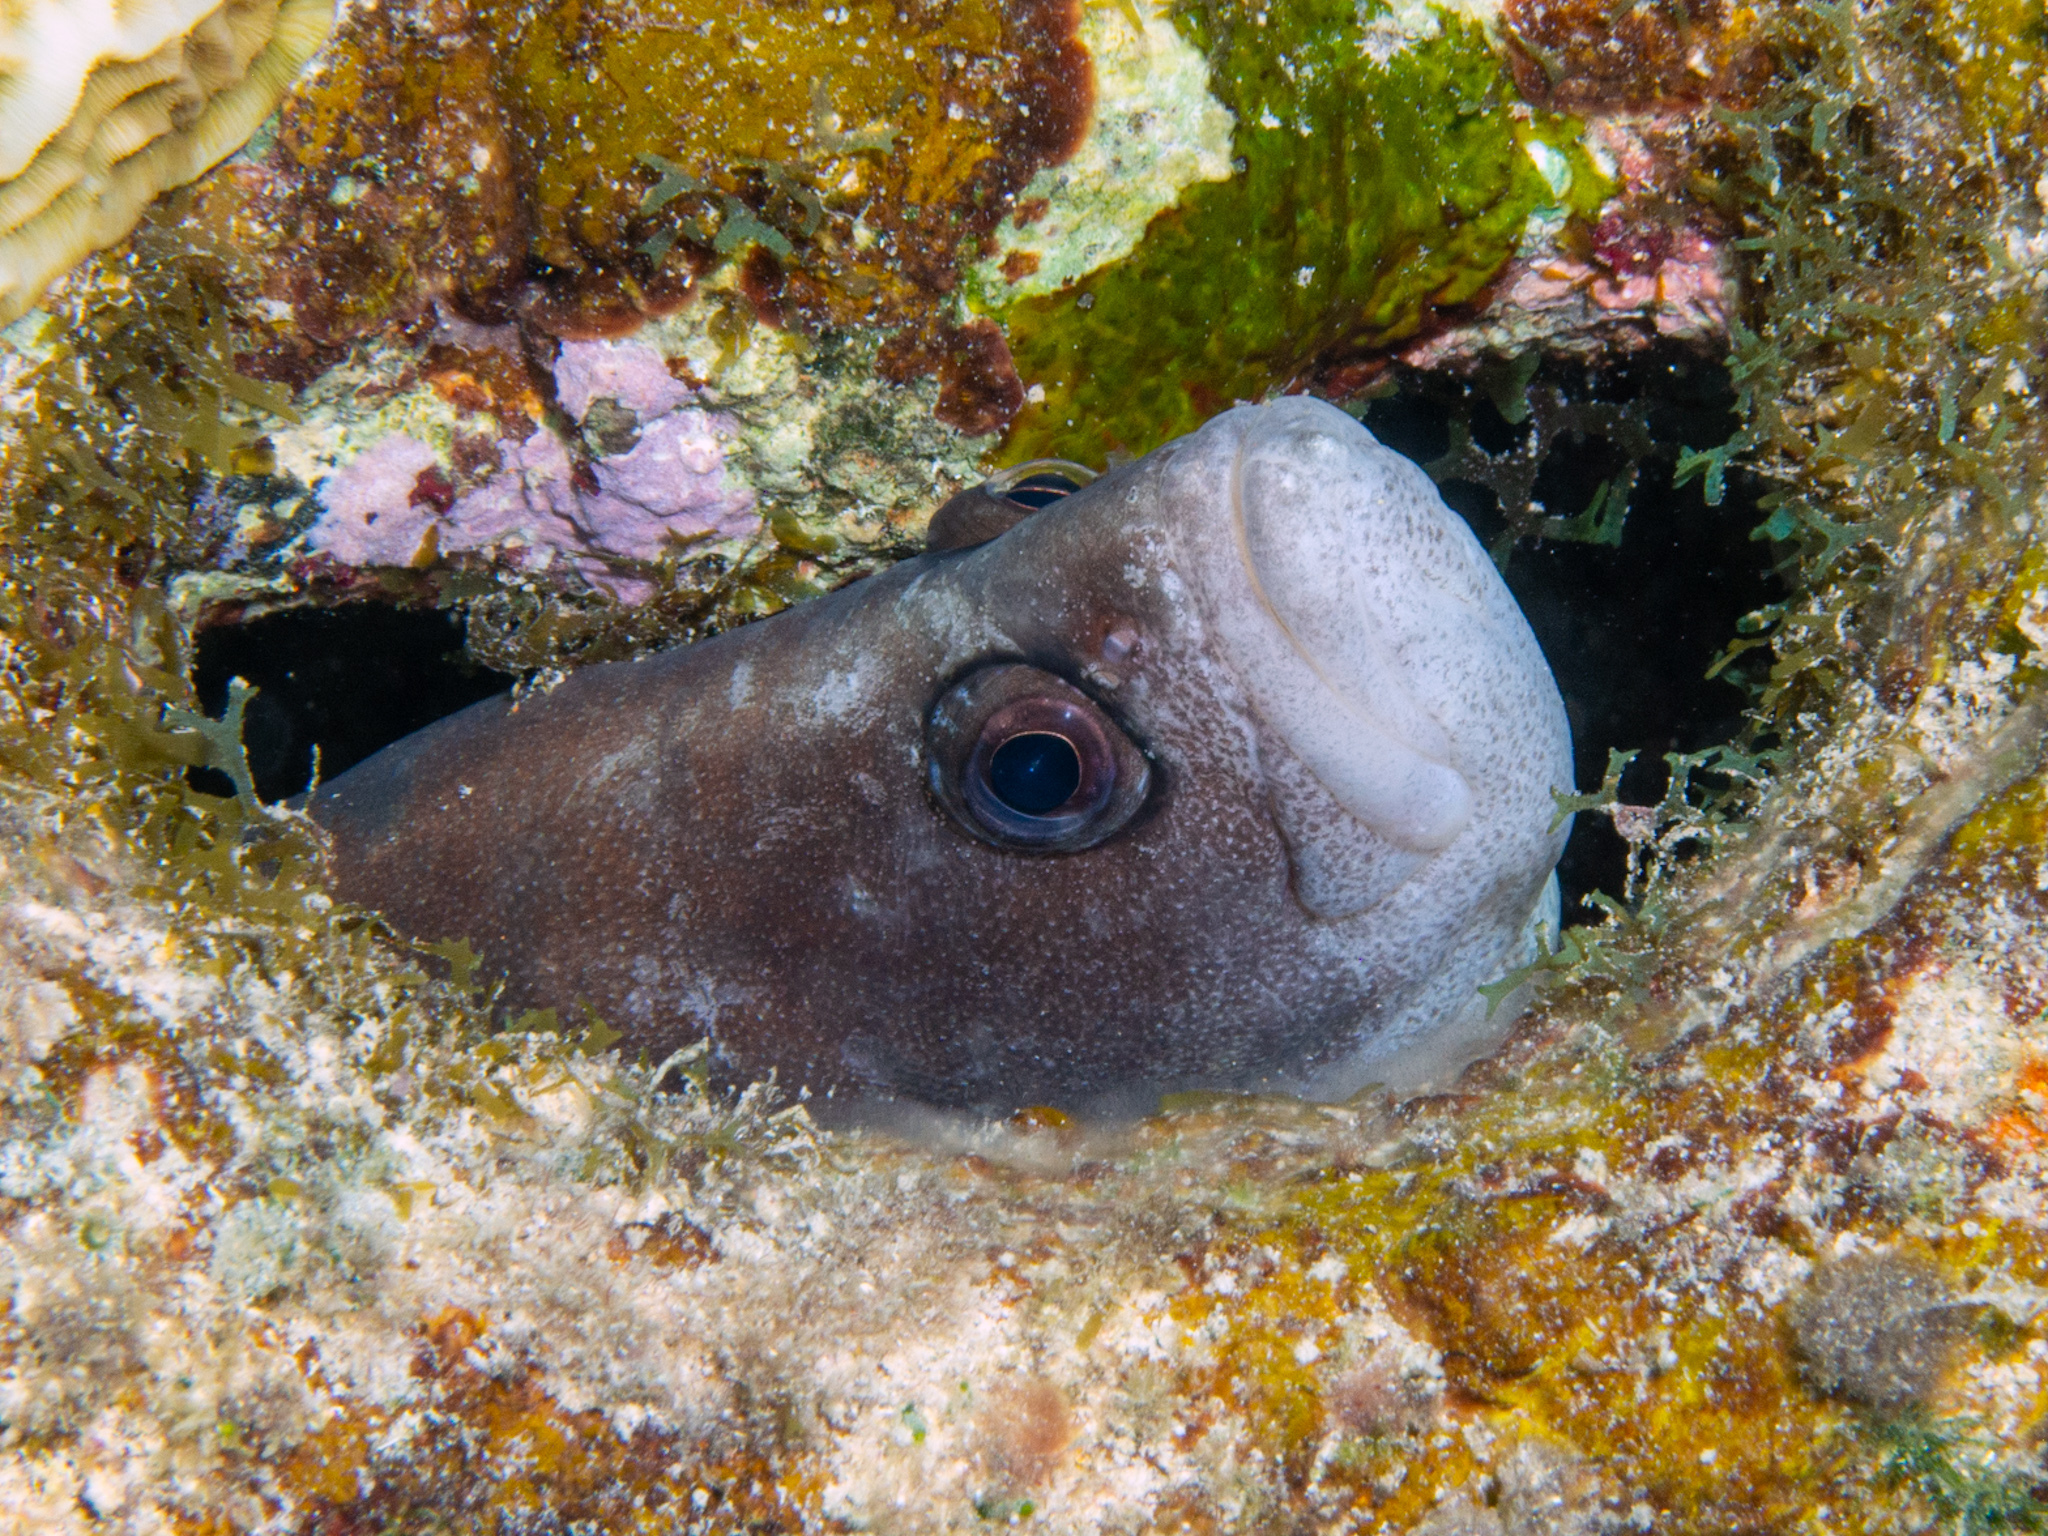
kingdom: Animalia
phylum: Chordata
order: Perciformes
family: Serranidae
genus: Rypticus
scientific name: Rypticus saponaceus
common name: Soapfish
